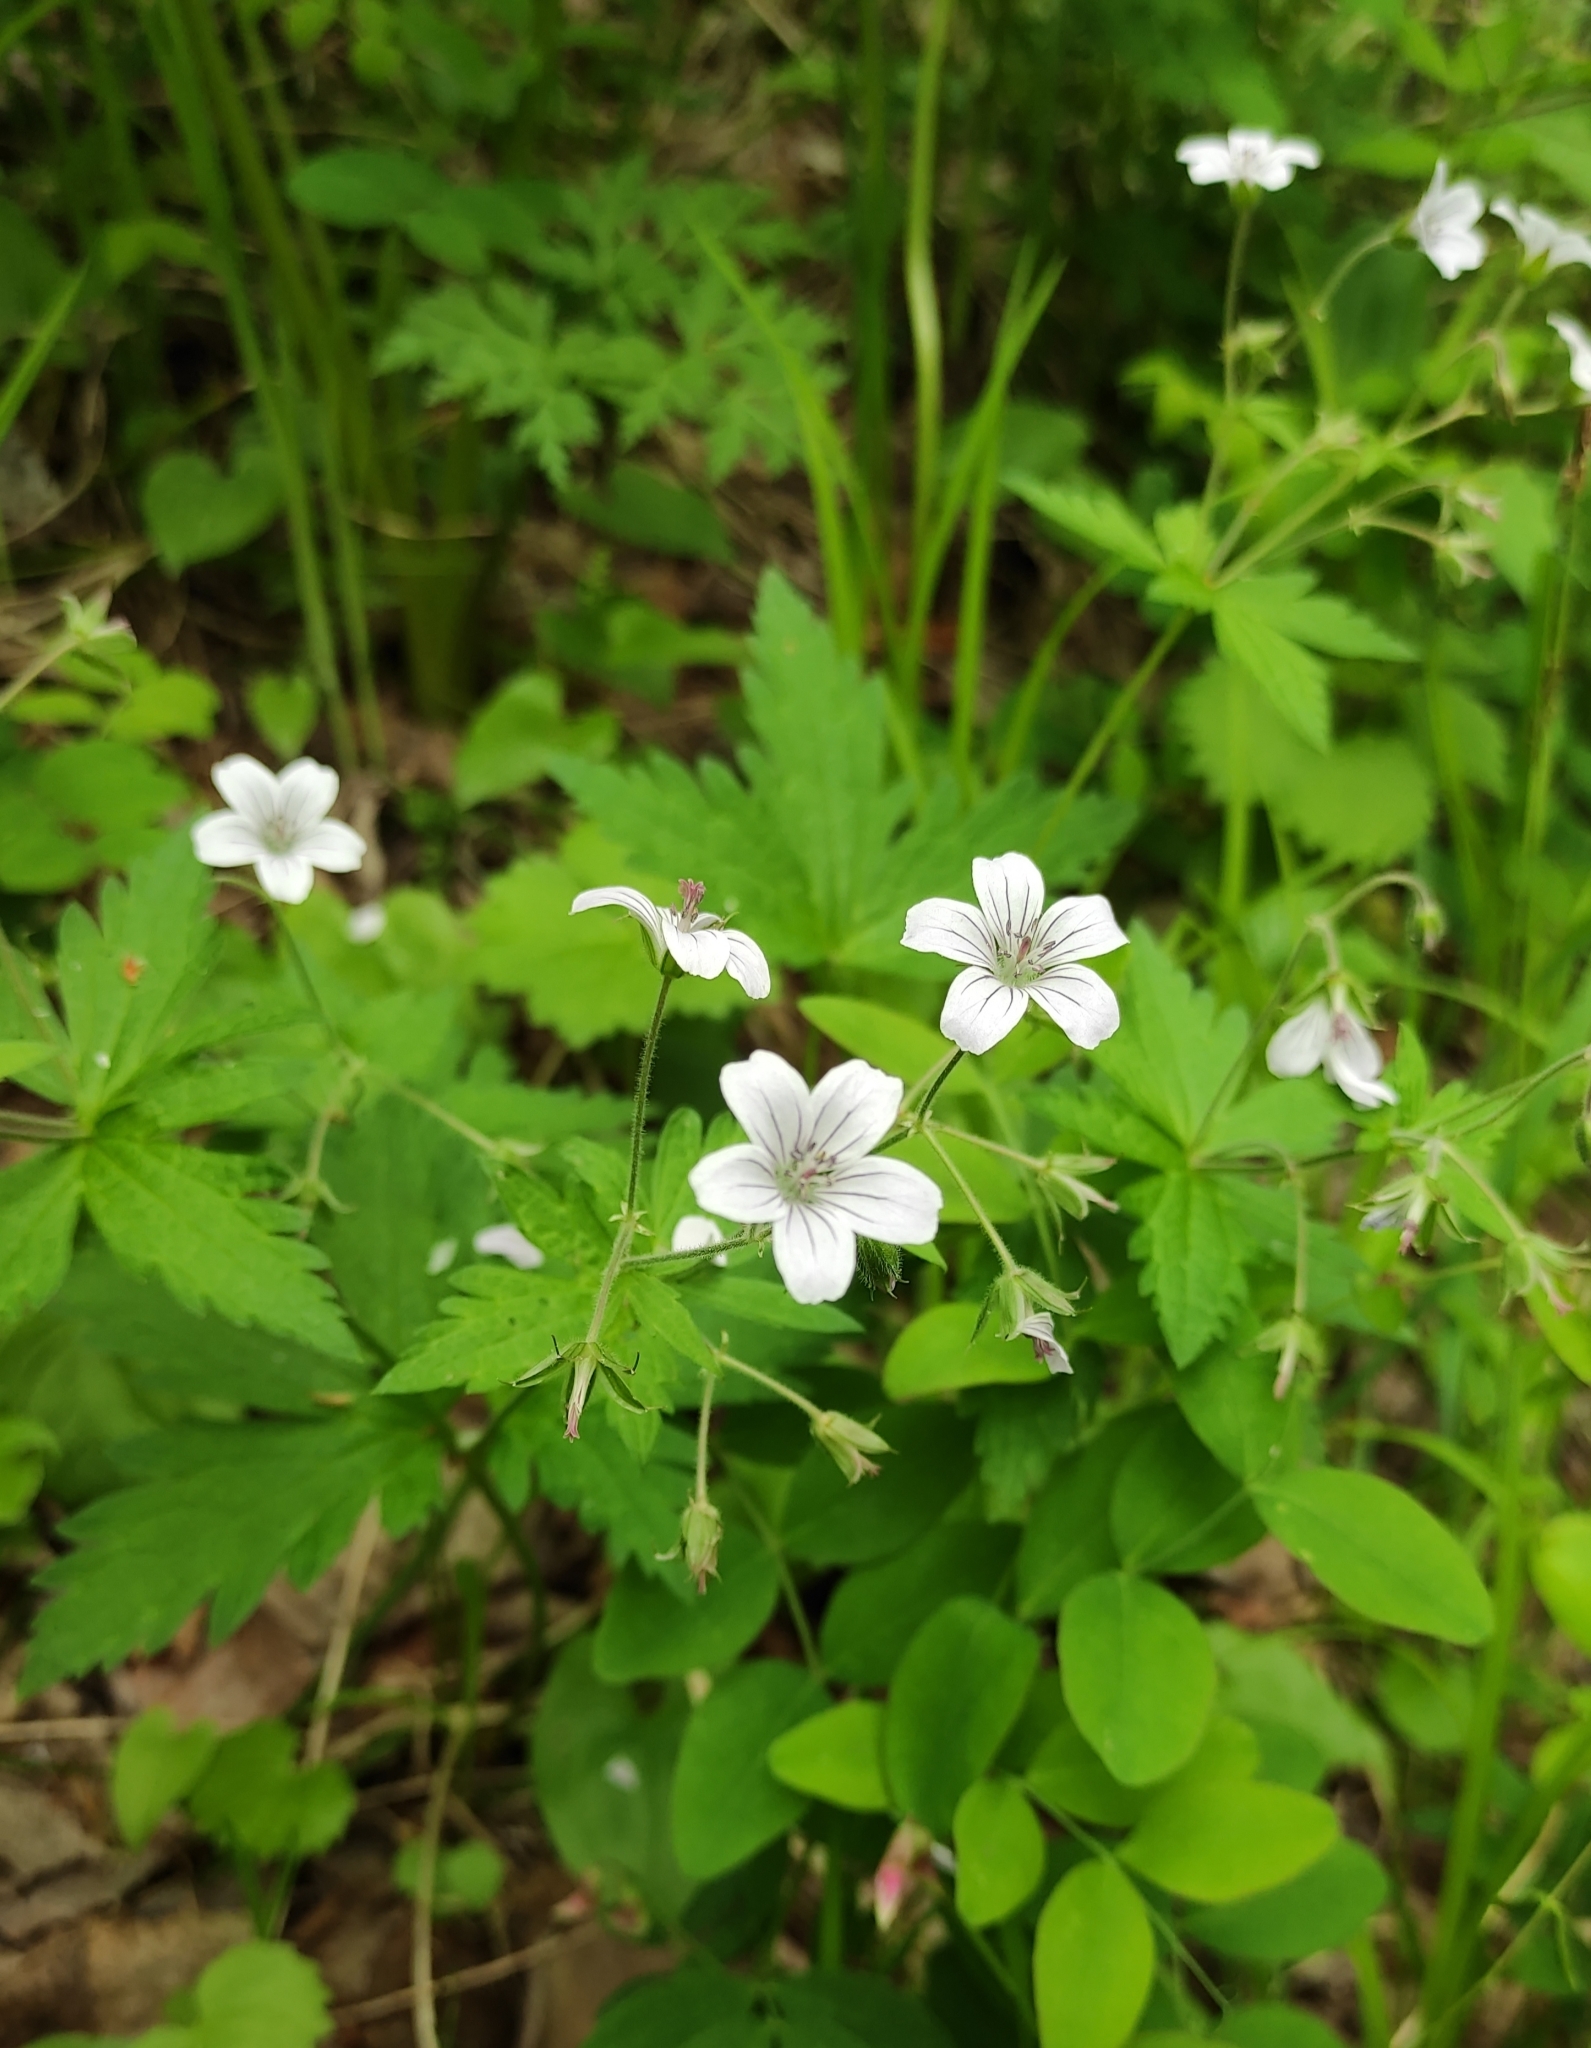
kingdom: Plantae
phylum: Tracheophyta
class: Magnoliopsida
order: Geraniales
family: Geraniaceae
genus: Geranium
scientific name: Geranium sylvaticum
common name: Wood crane's-bill
